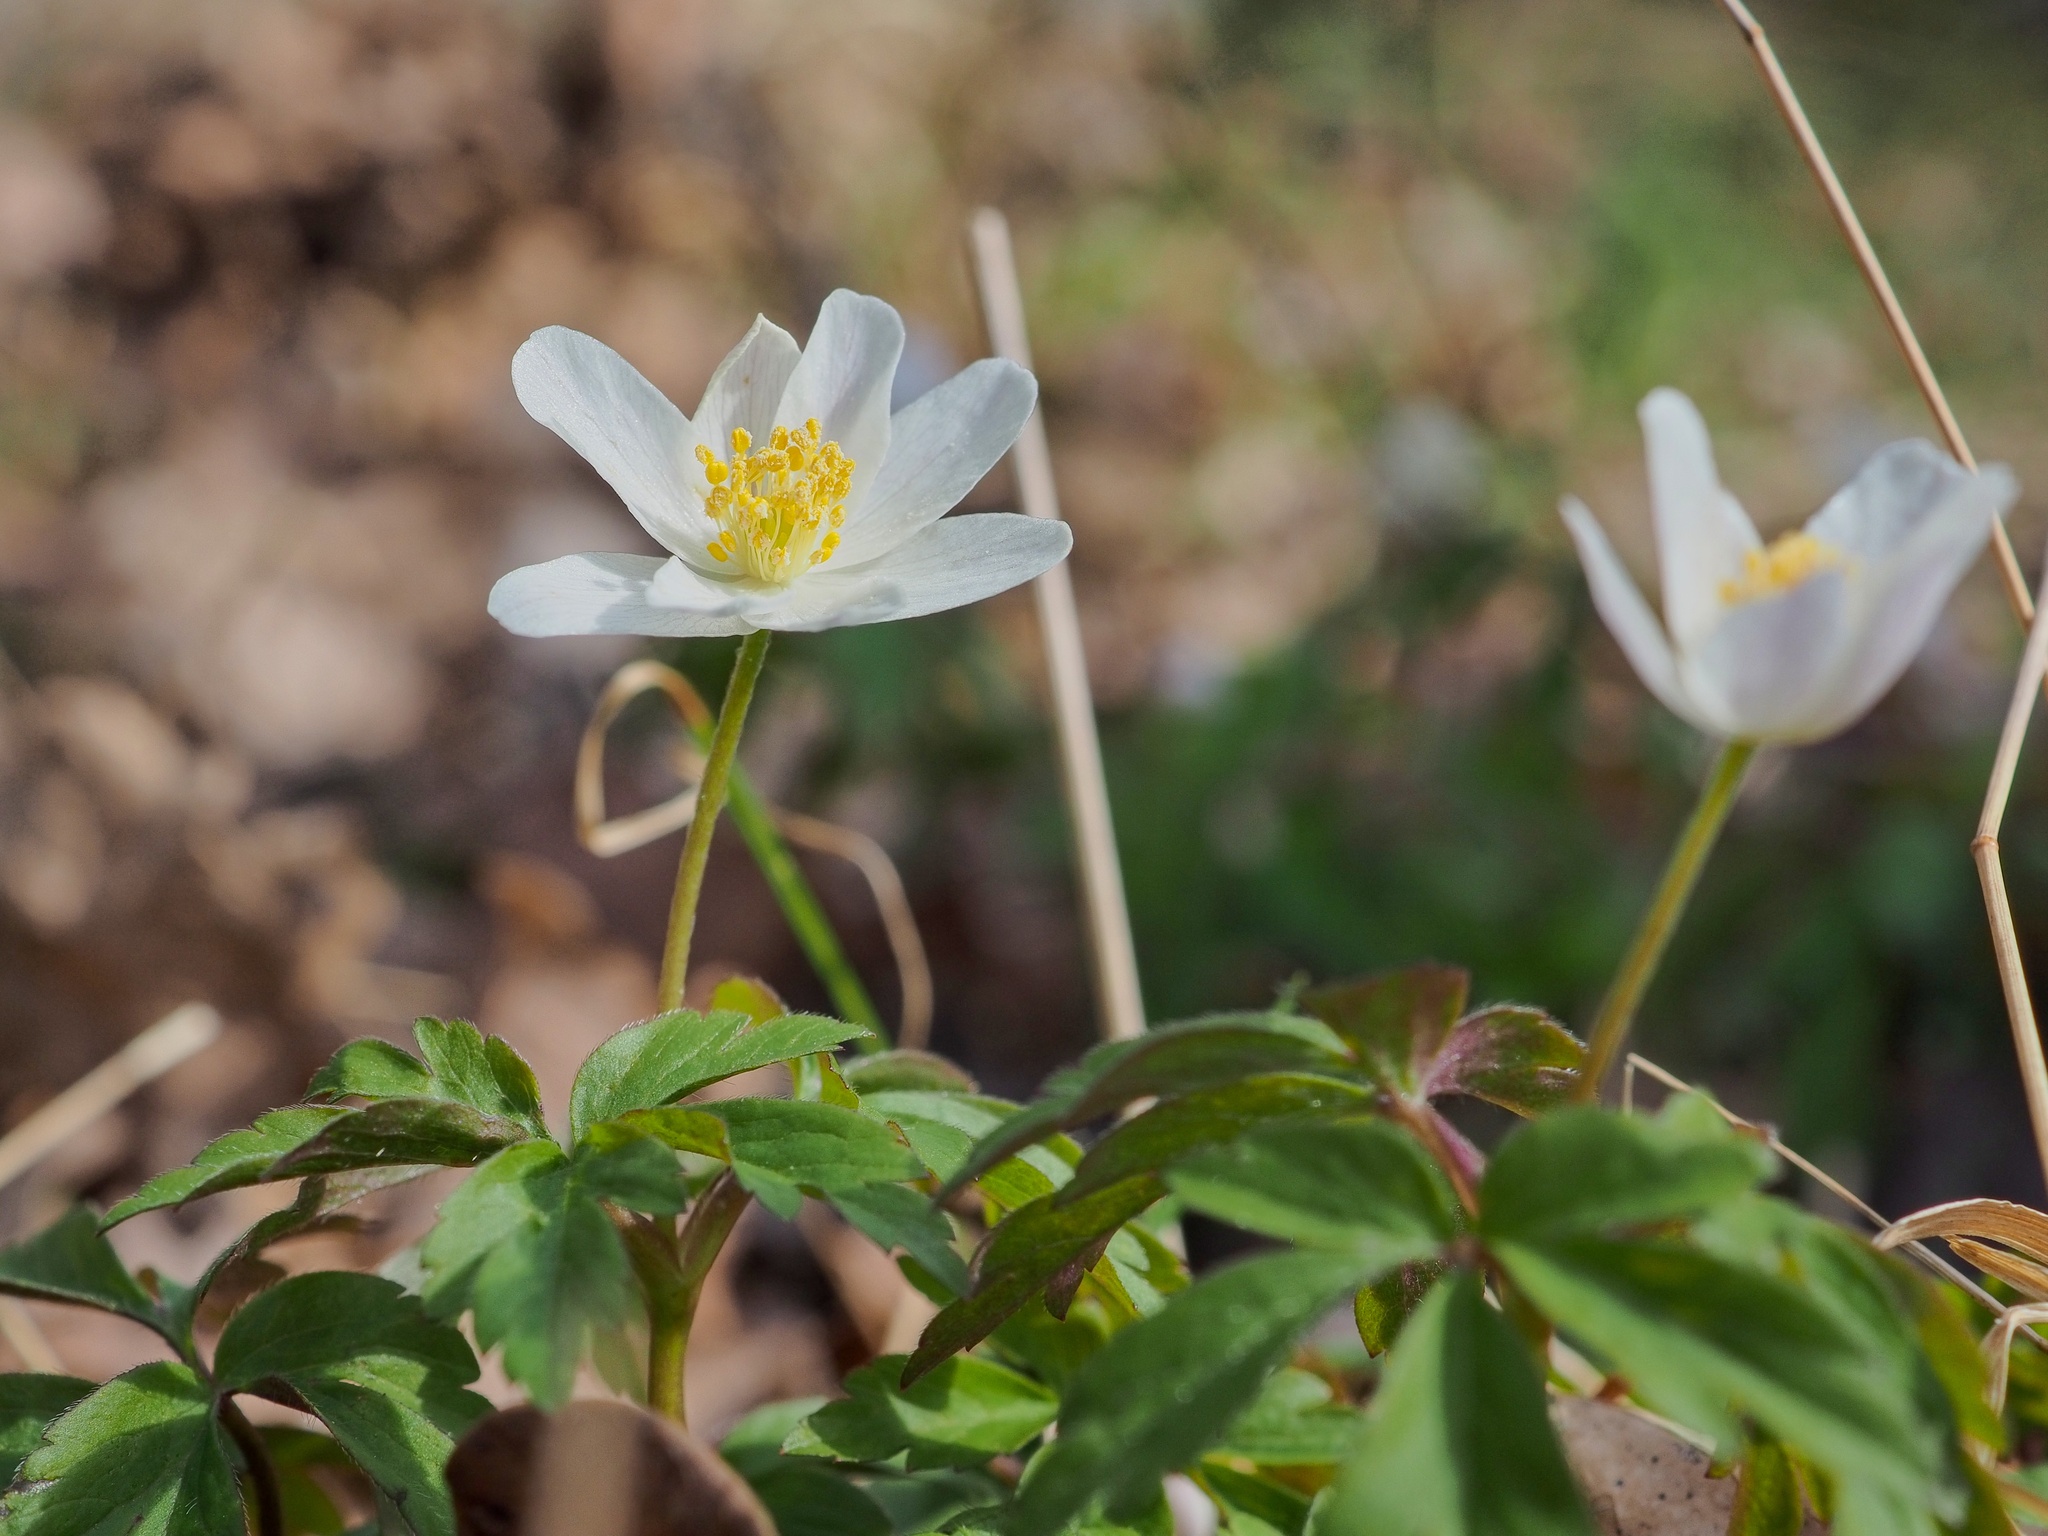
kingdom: Plantae
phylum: Tracheophyta
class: Magnoliopsida
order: Ranunculales
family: Ranunculaceae
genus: Anemone
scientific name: Anemone nemorosa
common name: Wood anemone
